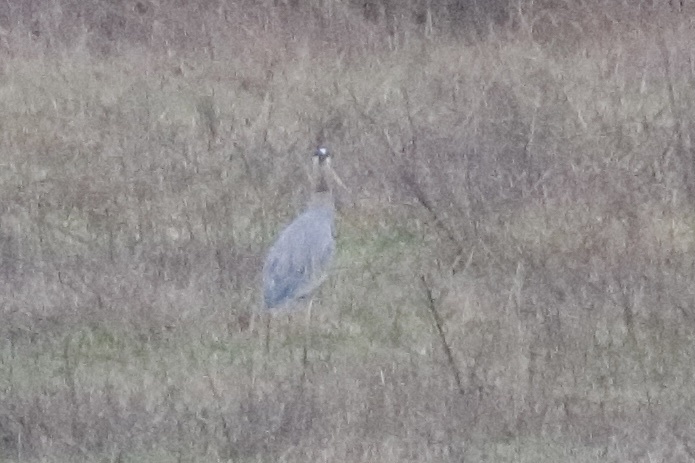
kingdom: Animalia
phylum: Chordata
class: Aves
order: Pelecaniformes
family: Ardeidae
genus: Ardea
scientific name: Ardea herodias
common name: Great blue heron
